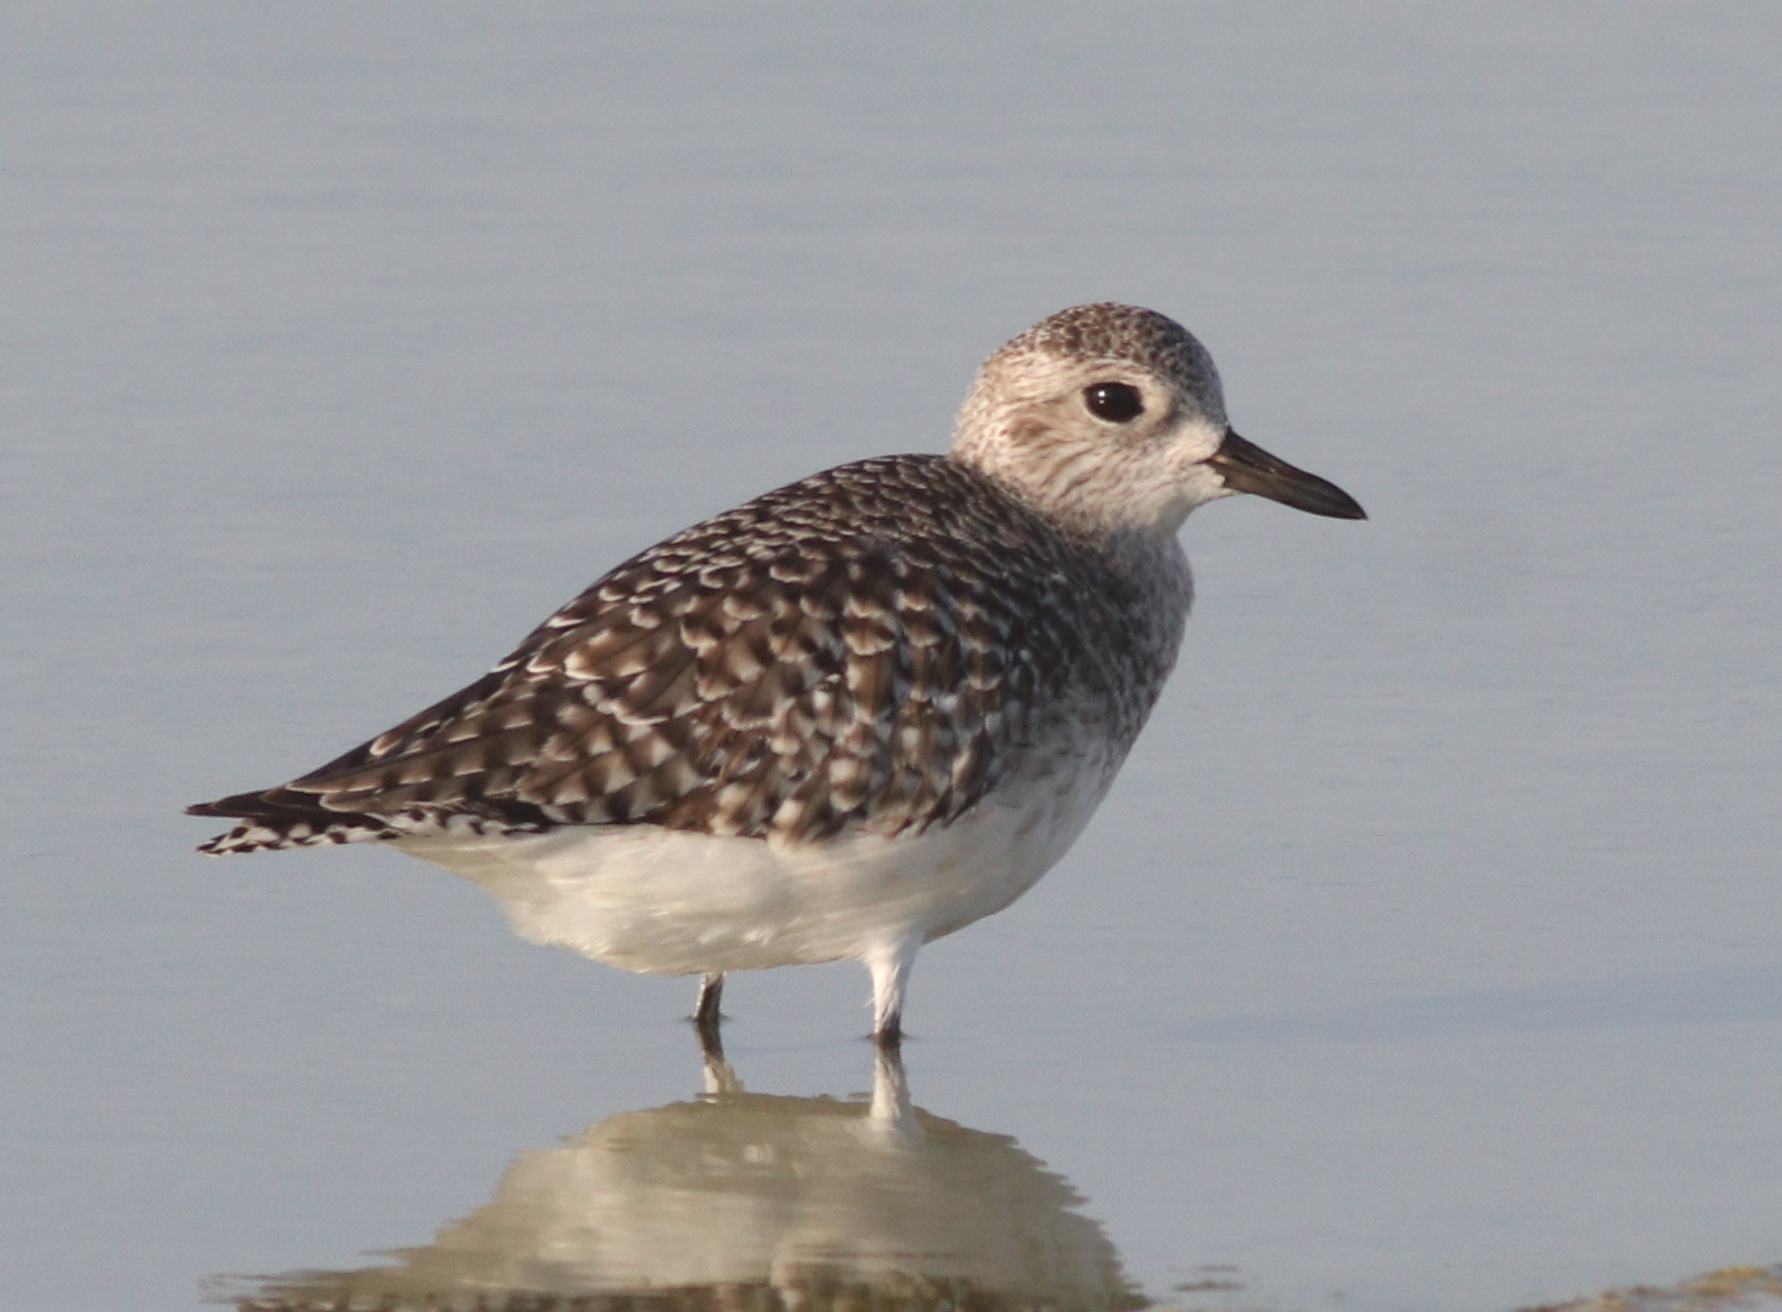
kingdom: Animalia
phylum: Chordata
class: Aves
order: Charadriiformes
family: Charadriidae
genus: Pluvialis
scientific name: Pluvialis squatarola
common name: Grey plover
